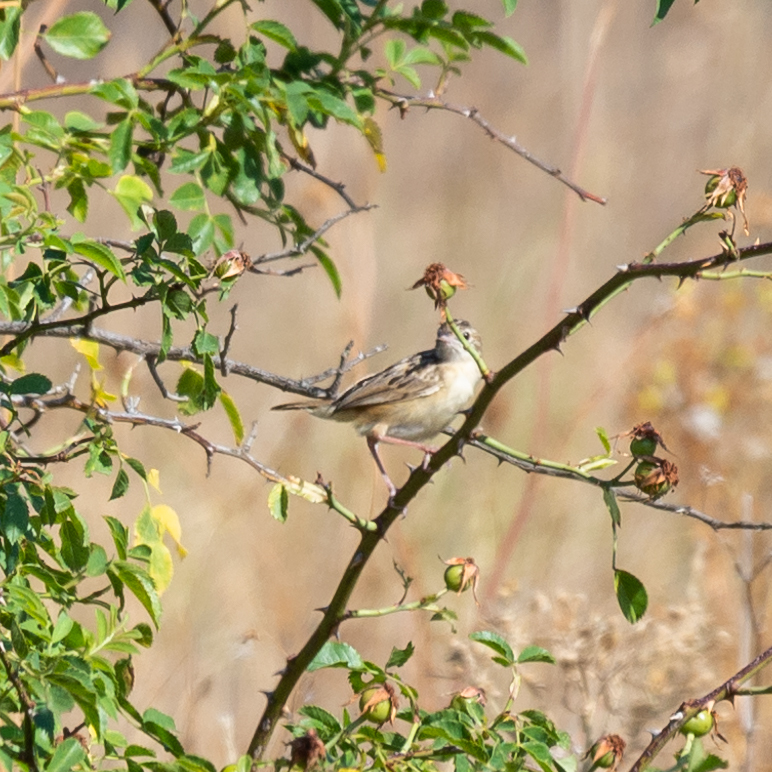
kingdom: Animalia
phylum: Chordata
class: Aves
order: Passeriformes
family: Cisticolidae
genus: Cisticola
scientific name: Cisticola juncidis
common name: Zitting cisticola
